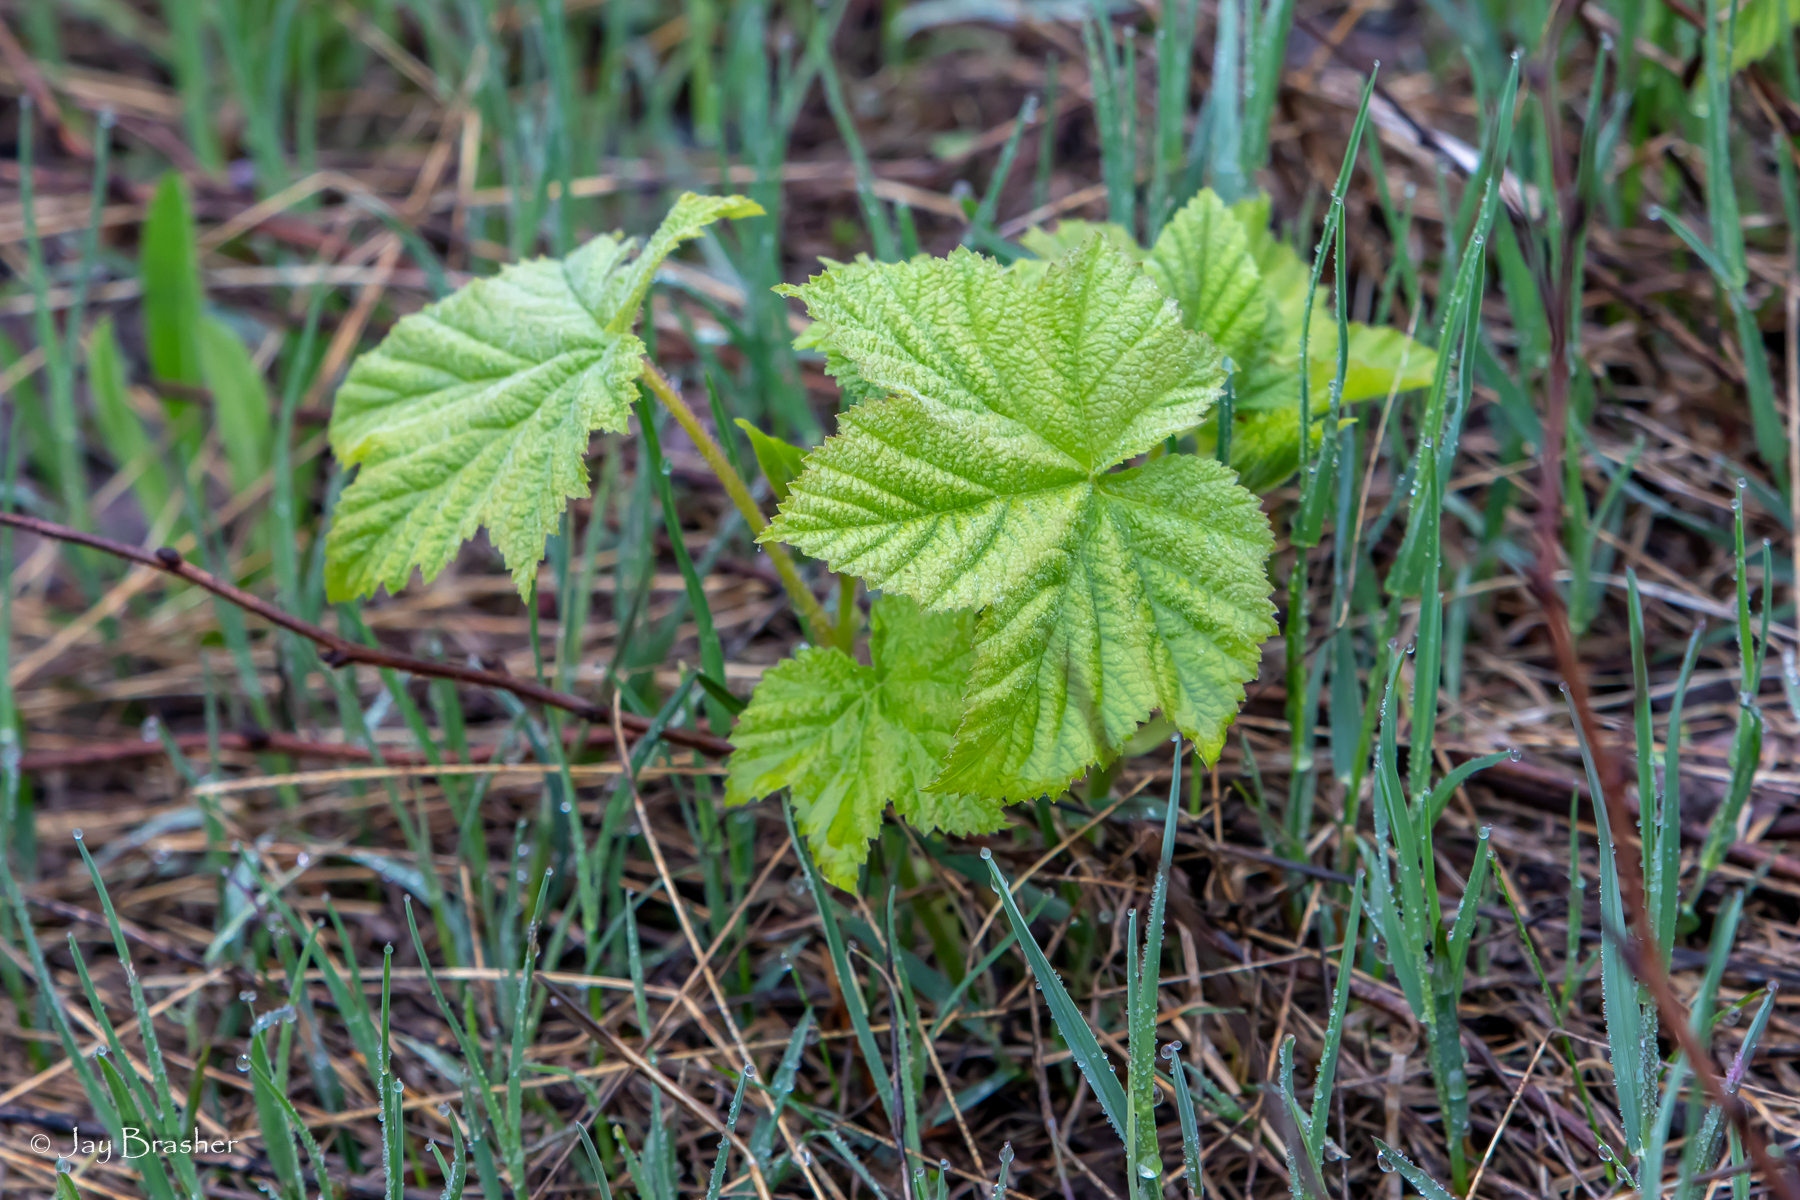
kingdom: Plantae
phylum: Tracheophyta
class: Magnoliopsida
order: Rosales
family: Rosaceae
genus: Rubus
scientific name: Rubus parviflorus
